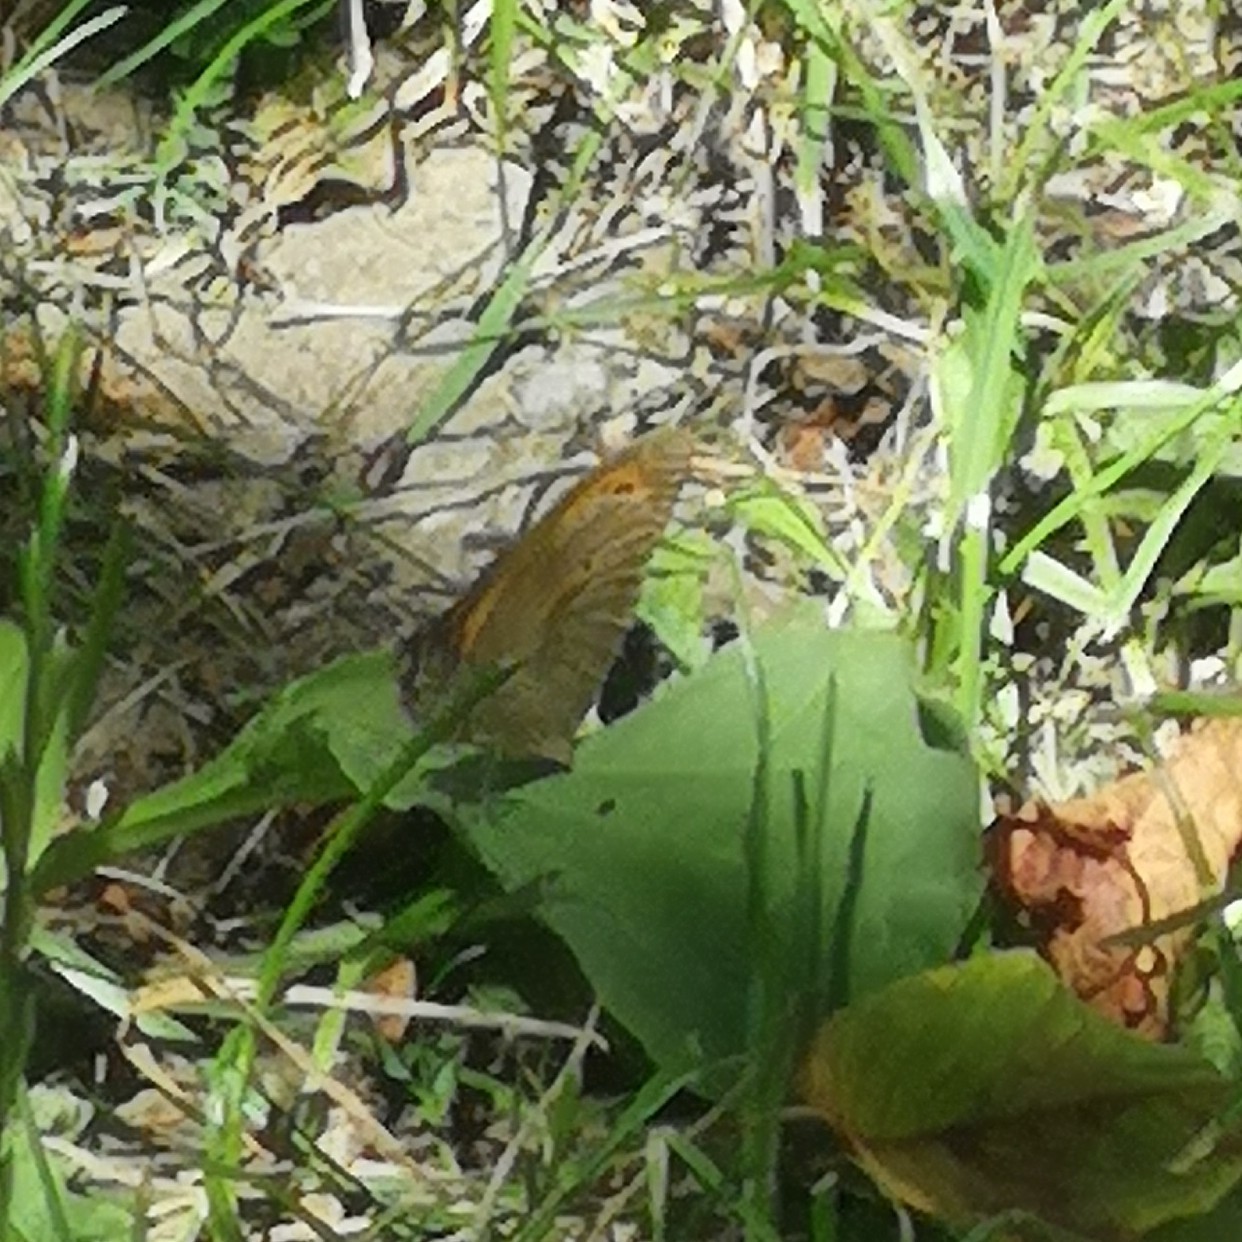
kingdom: Animalia
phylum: Arthropoda
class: Insecta
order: Lepidoptera
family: Nymphalidae
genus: Maniola
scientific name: Maniola jurtina
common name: Meadow brown
